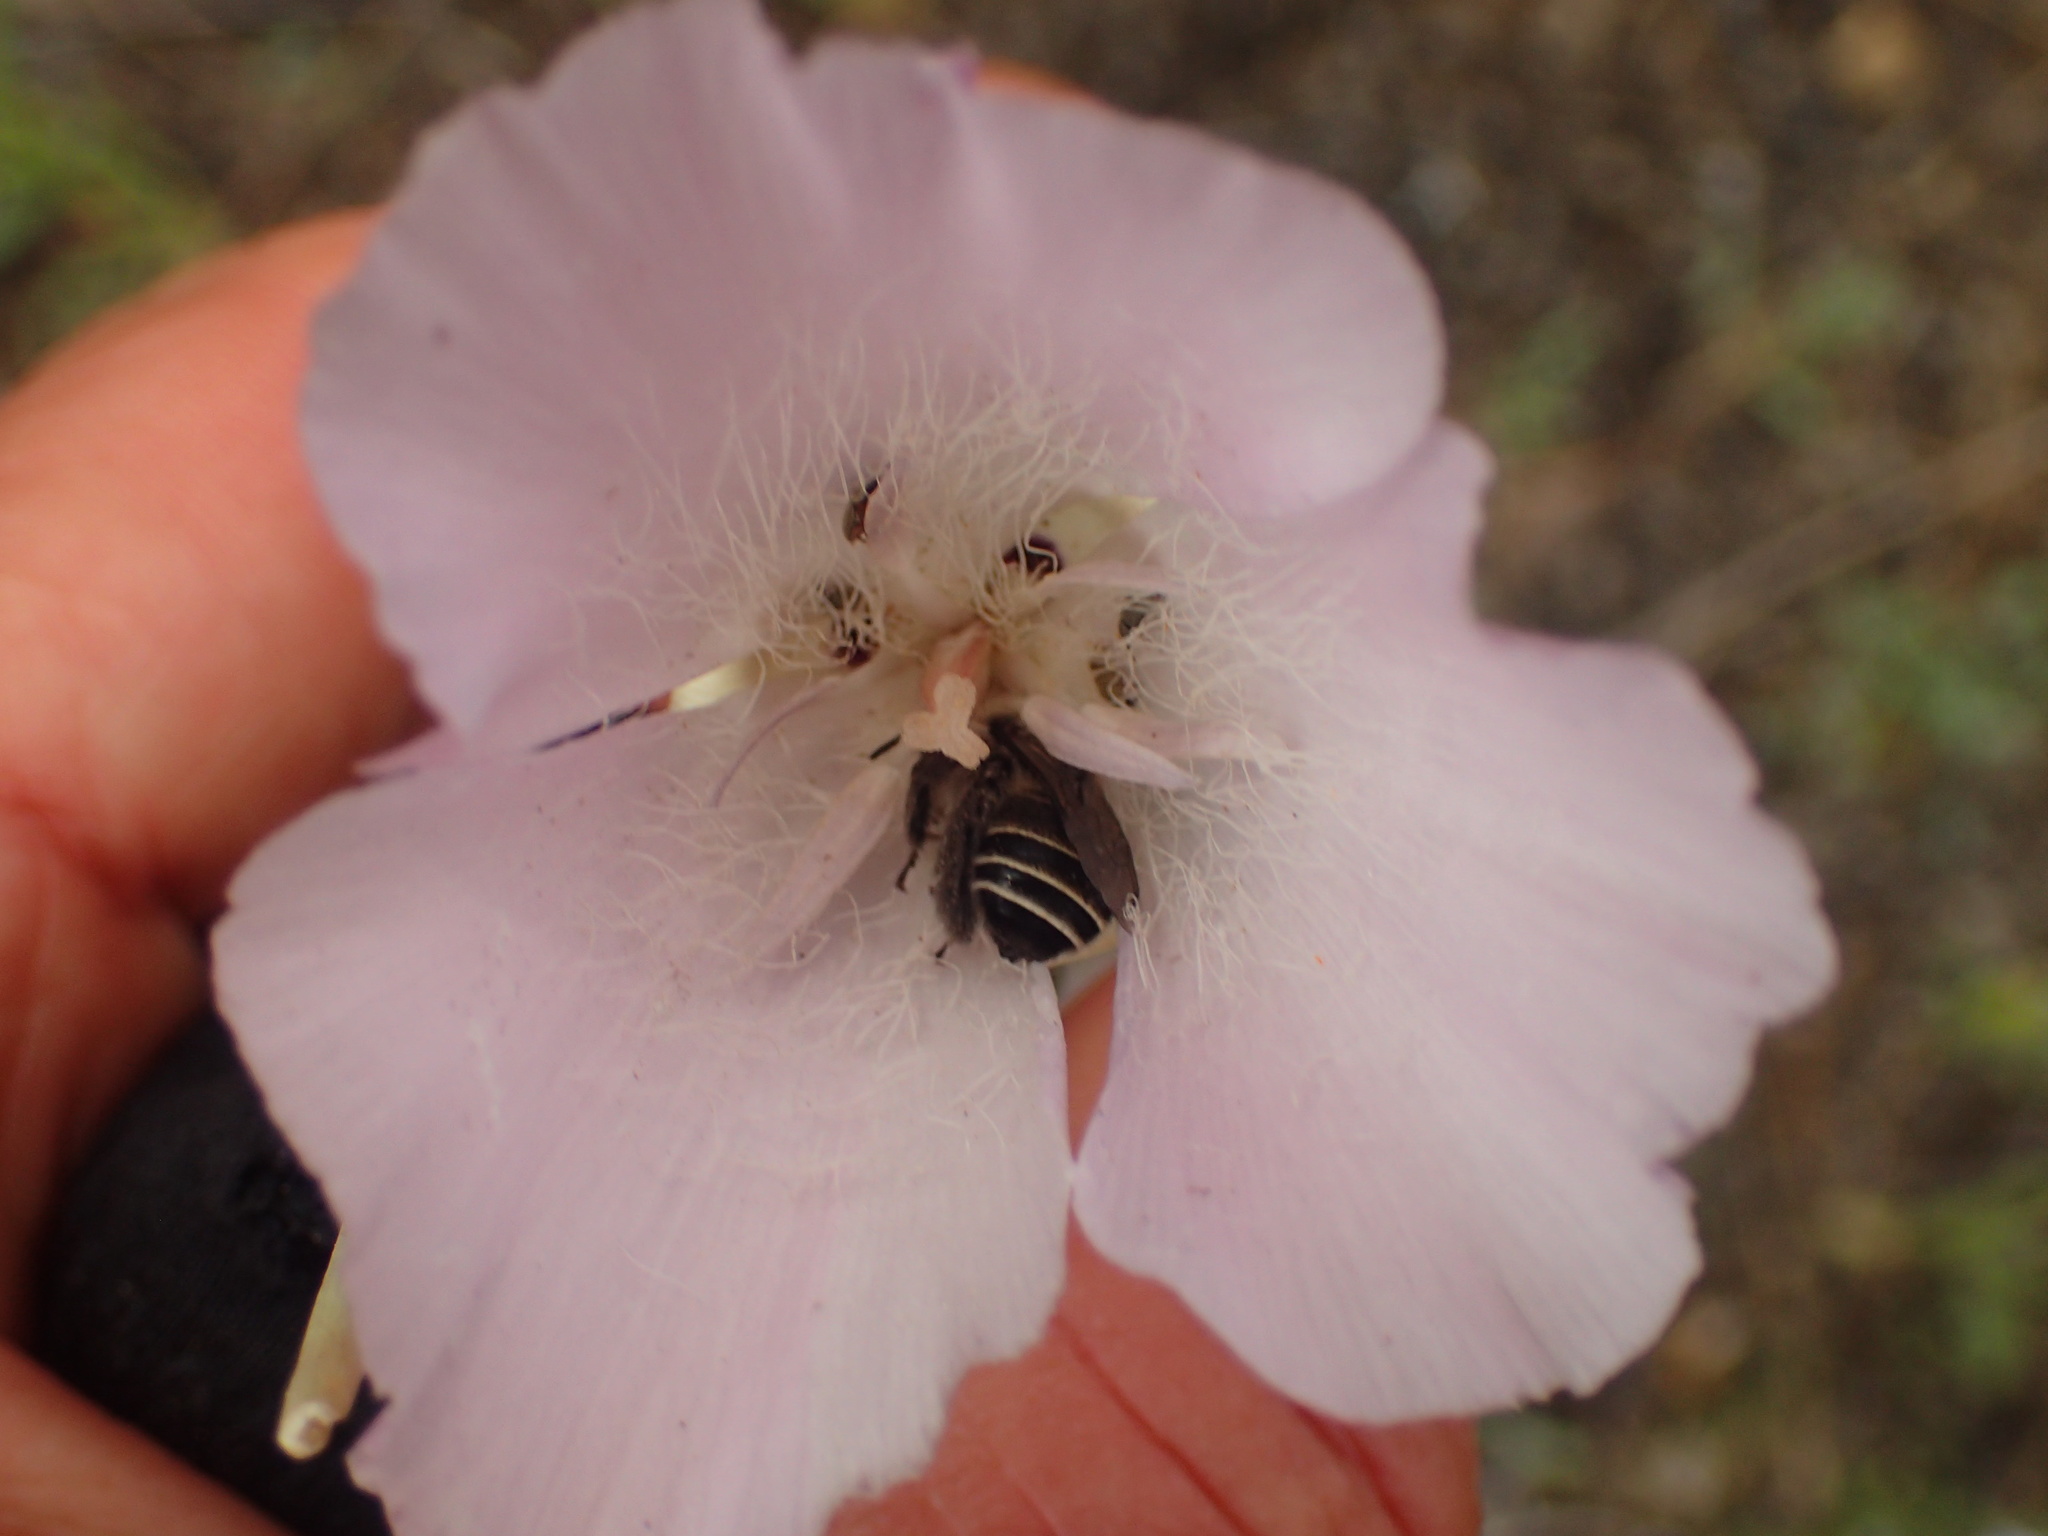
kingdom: Plantae
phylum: Tracheophyta
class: Liliopsida
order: Liliales
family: Liliaceae
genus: Calochortus
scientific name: Calochortus splendens
